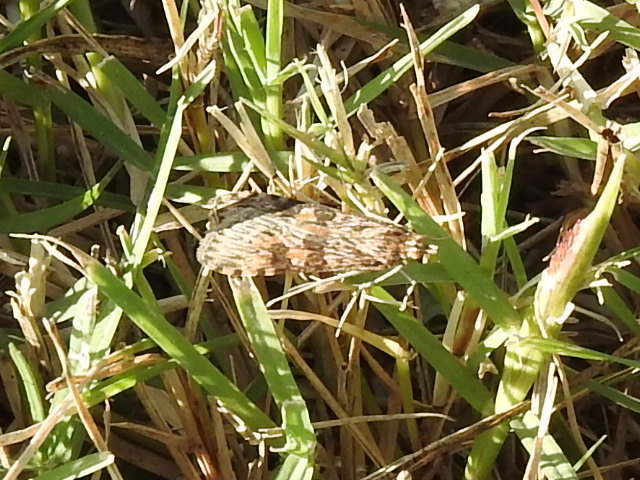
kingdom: Animalia
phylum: Arthropoda
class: Insecta
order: Lepidoptera
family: Crambidae
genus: Nomophila
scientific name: Nomophila nearctica
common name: American rush veneer
